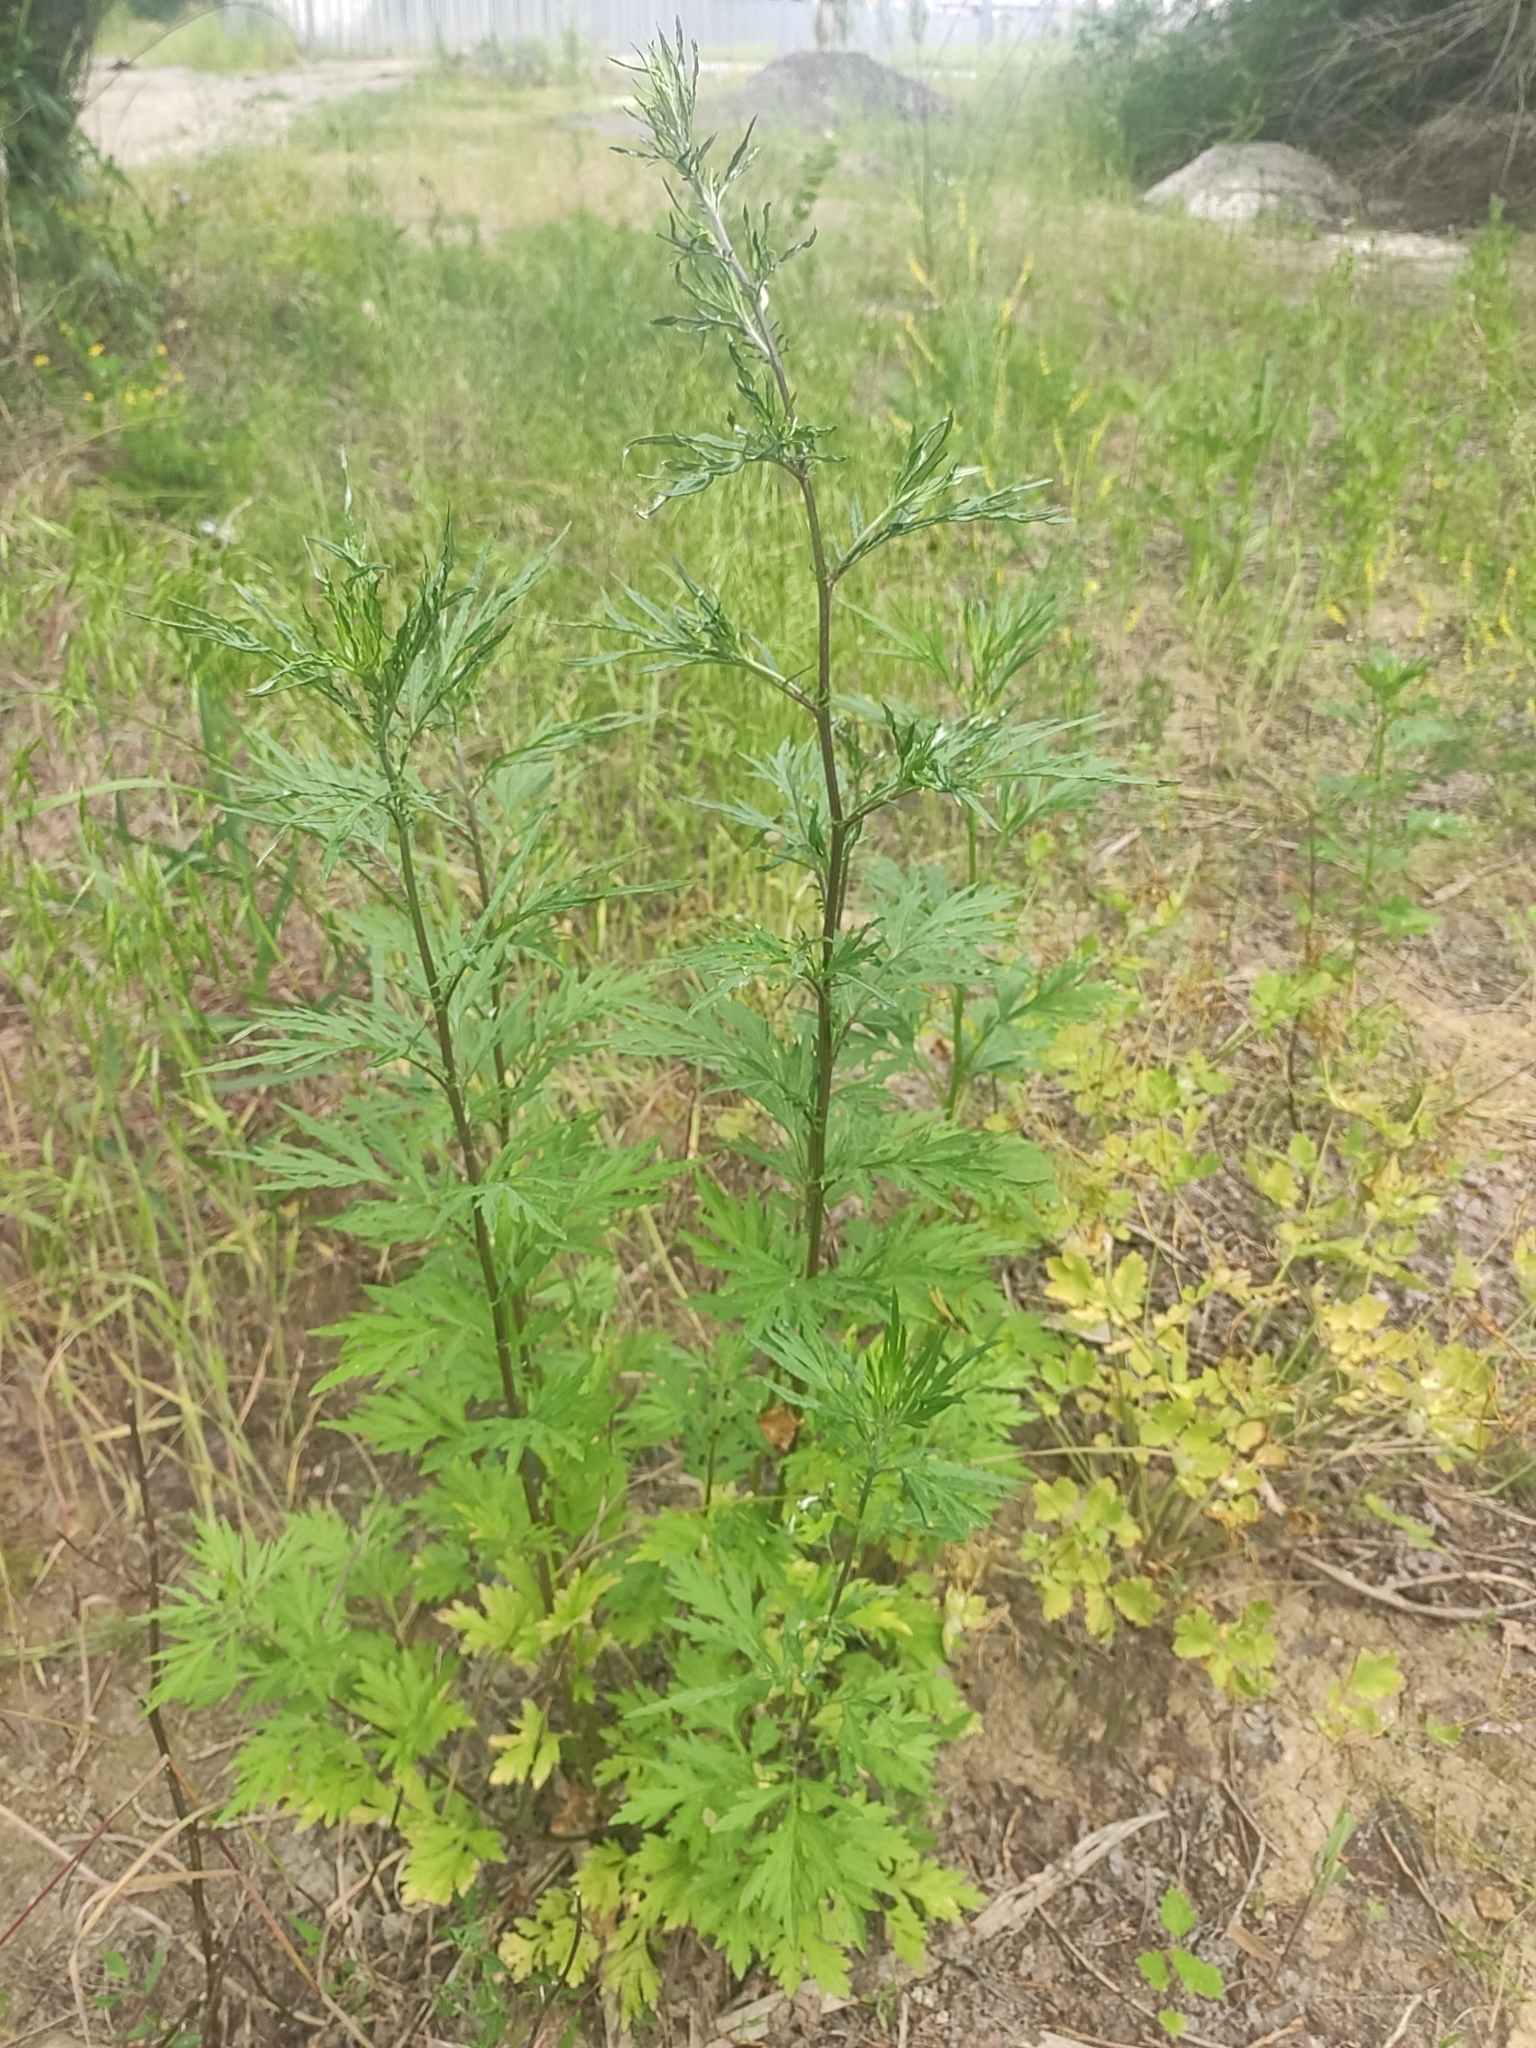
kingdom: Plantae
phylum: Tracheophyta
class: Magnoliopsida
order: Asterales
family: Asteraceae
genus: Artemisia
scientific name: Artemisia vulgaris
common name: Mugwort
